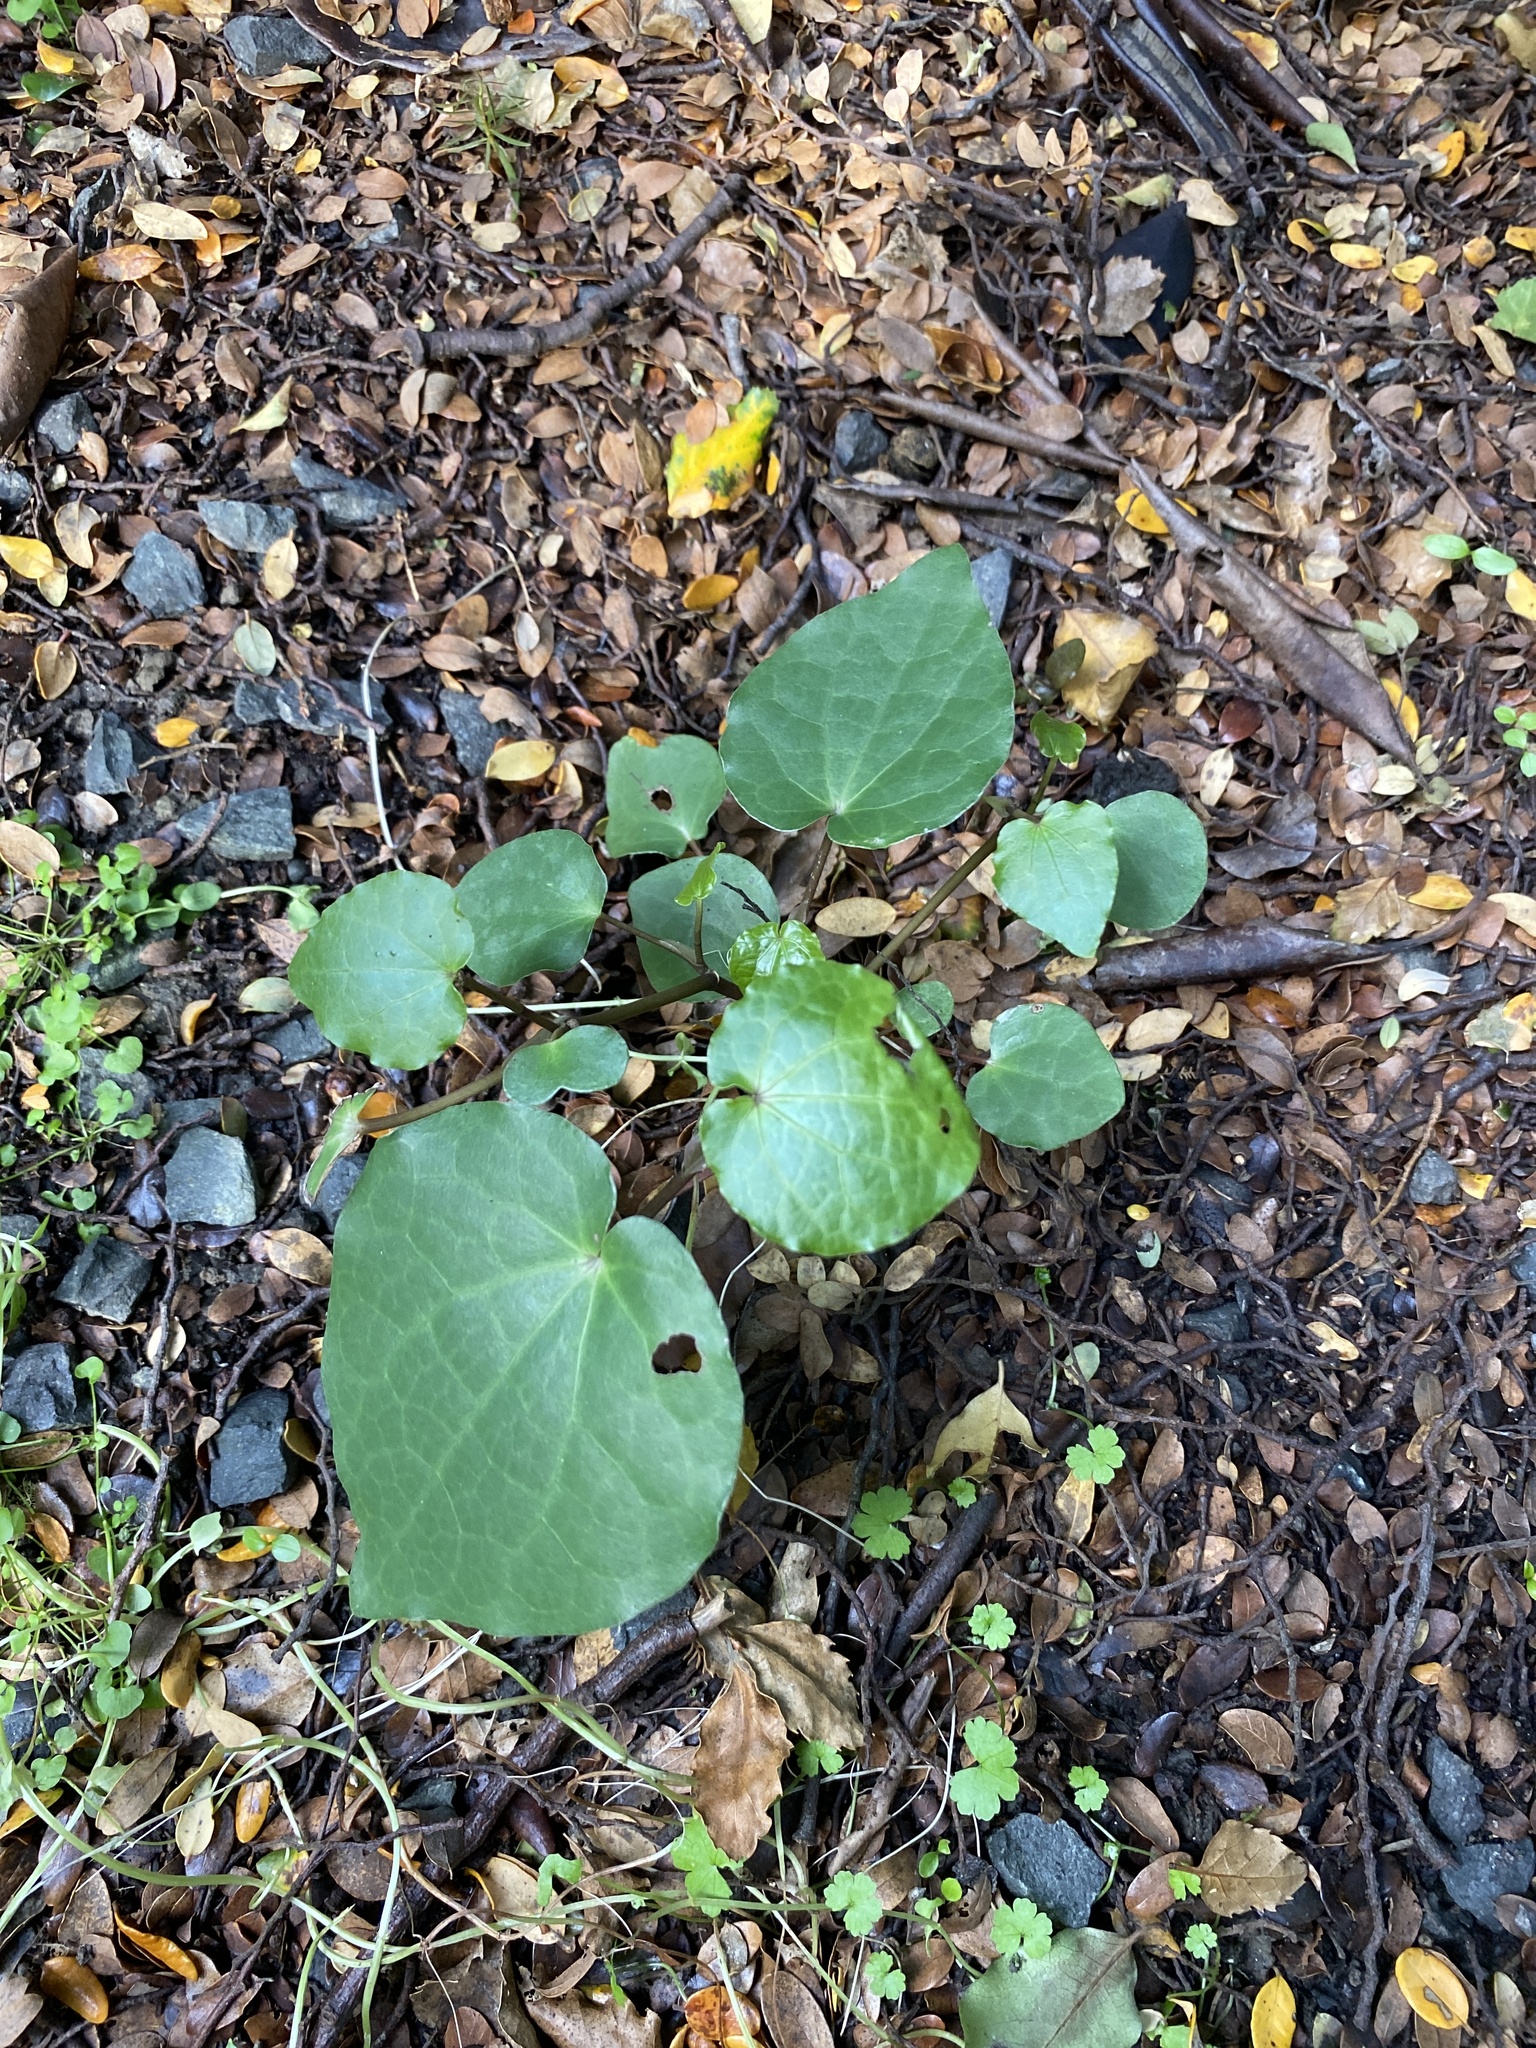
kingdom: Plantae
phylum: Tracheophyta
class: Magnoliopsida
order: Piperales
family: Piperaceae
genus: Macropiper
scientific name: Macropiper excelsum
